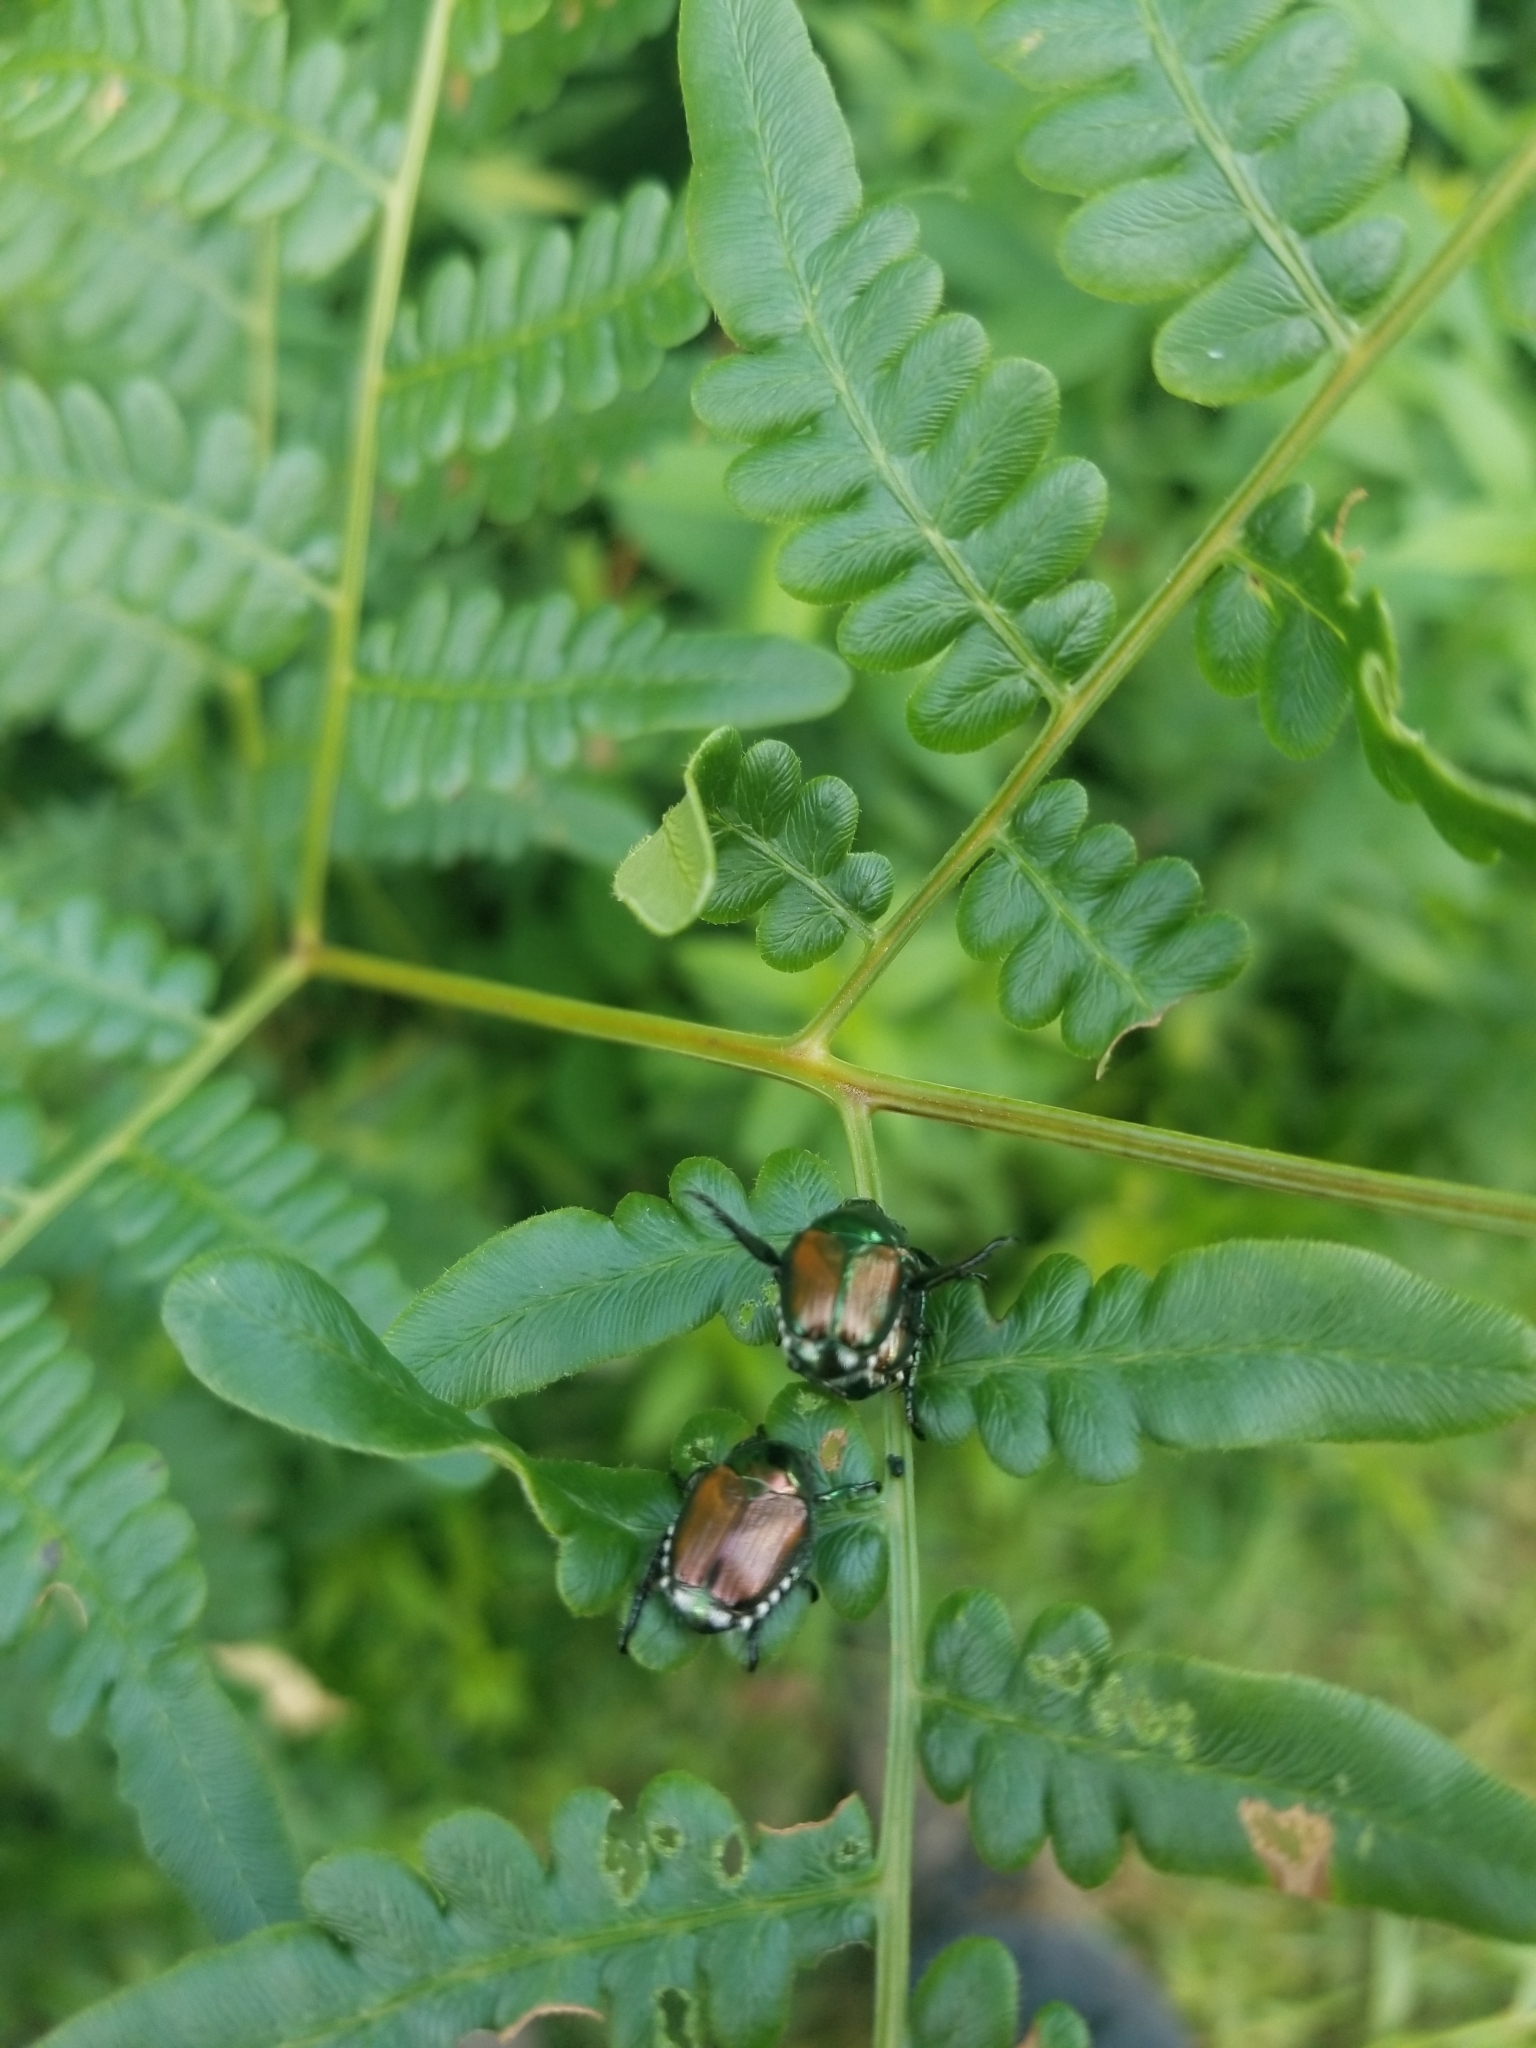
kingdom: Animalia
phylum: Arthropoda
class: Insecta
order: Coleoptera
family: Scarabaeidae
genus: Popillia
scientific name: Popillia japonica
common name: Japanese beetle
